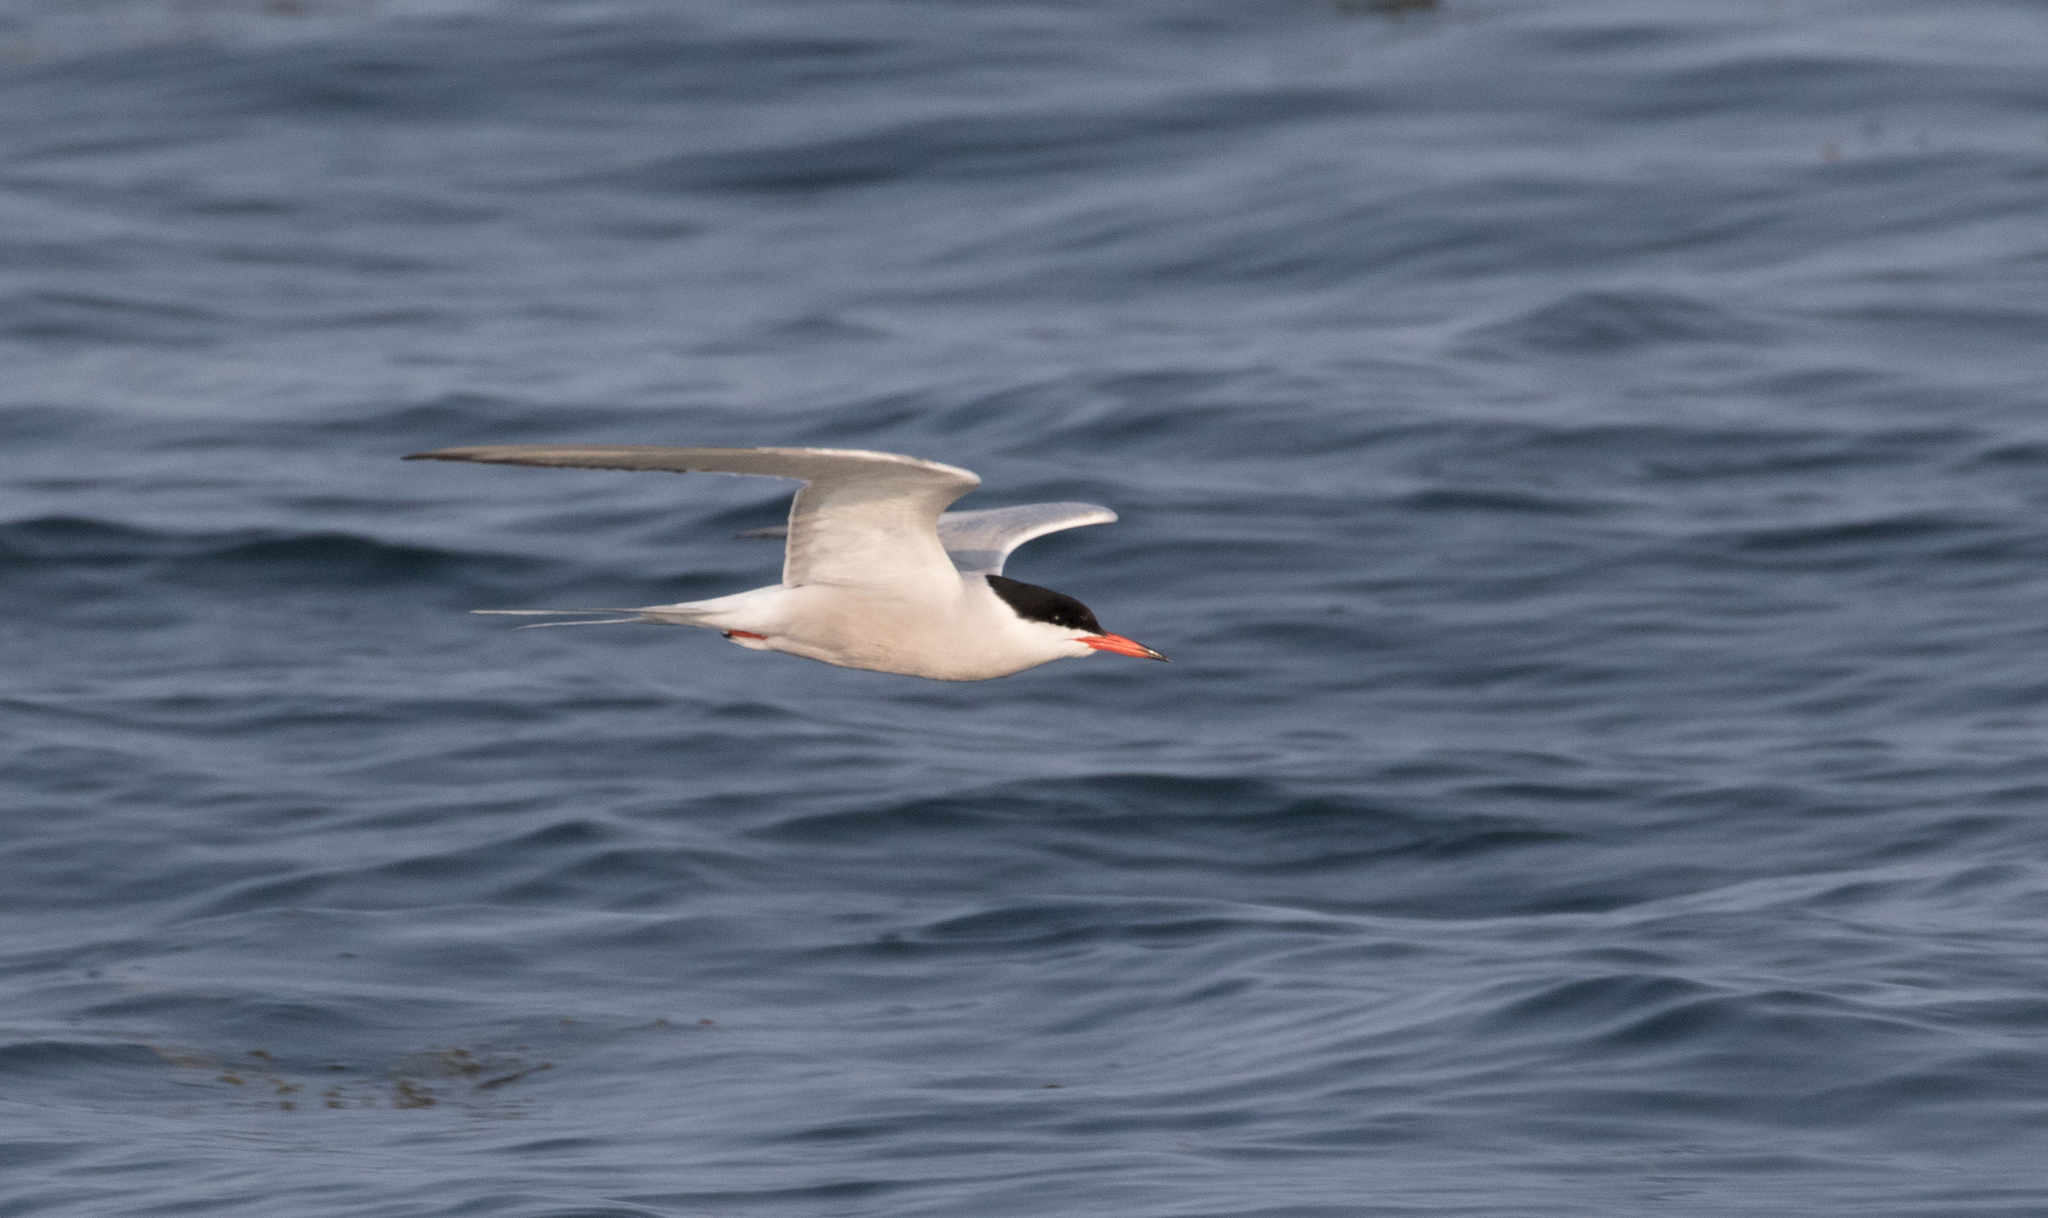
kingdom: Animalia
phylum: Chordata
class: Aves
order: Charadriiformes
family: Laridae
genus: Sterna
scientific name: Sterna hirundo
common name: Common tern
